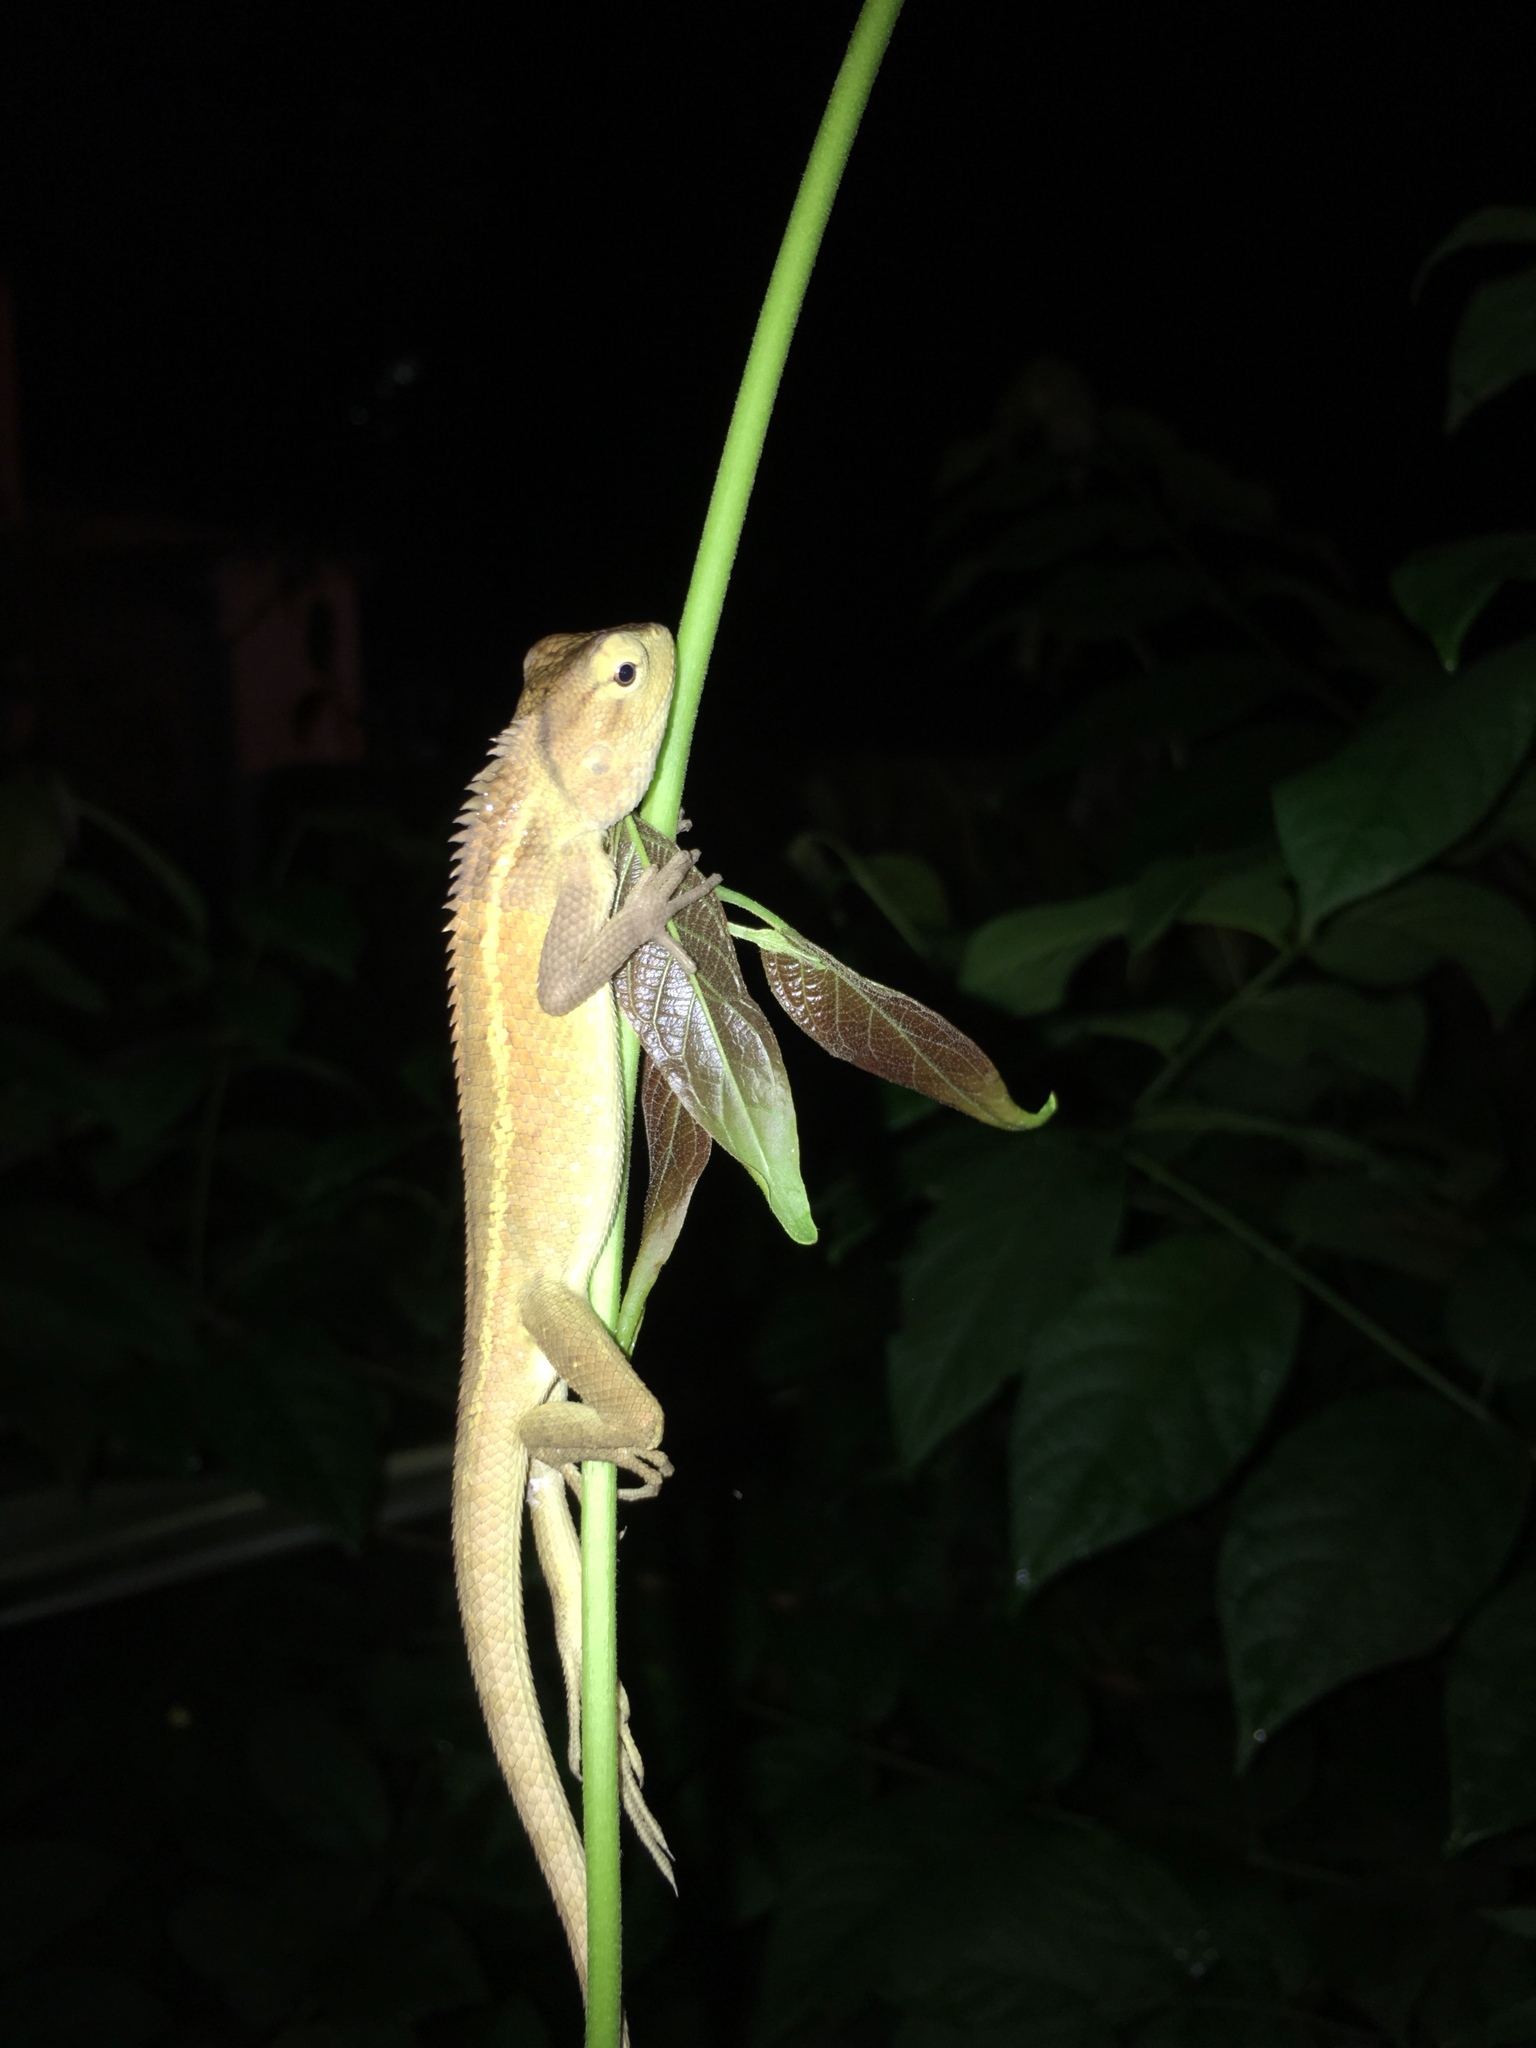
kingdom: Animalia
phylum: Chordata
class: Squamata
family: Agamidae
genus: Calotes
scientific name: Calotes versicolor
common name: Oriental garden lizard
